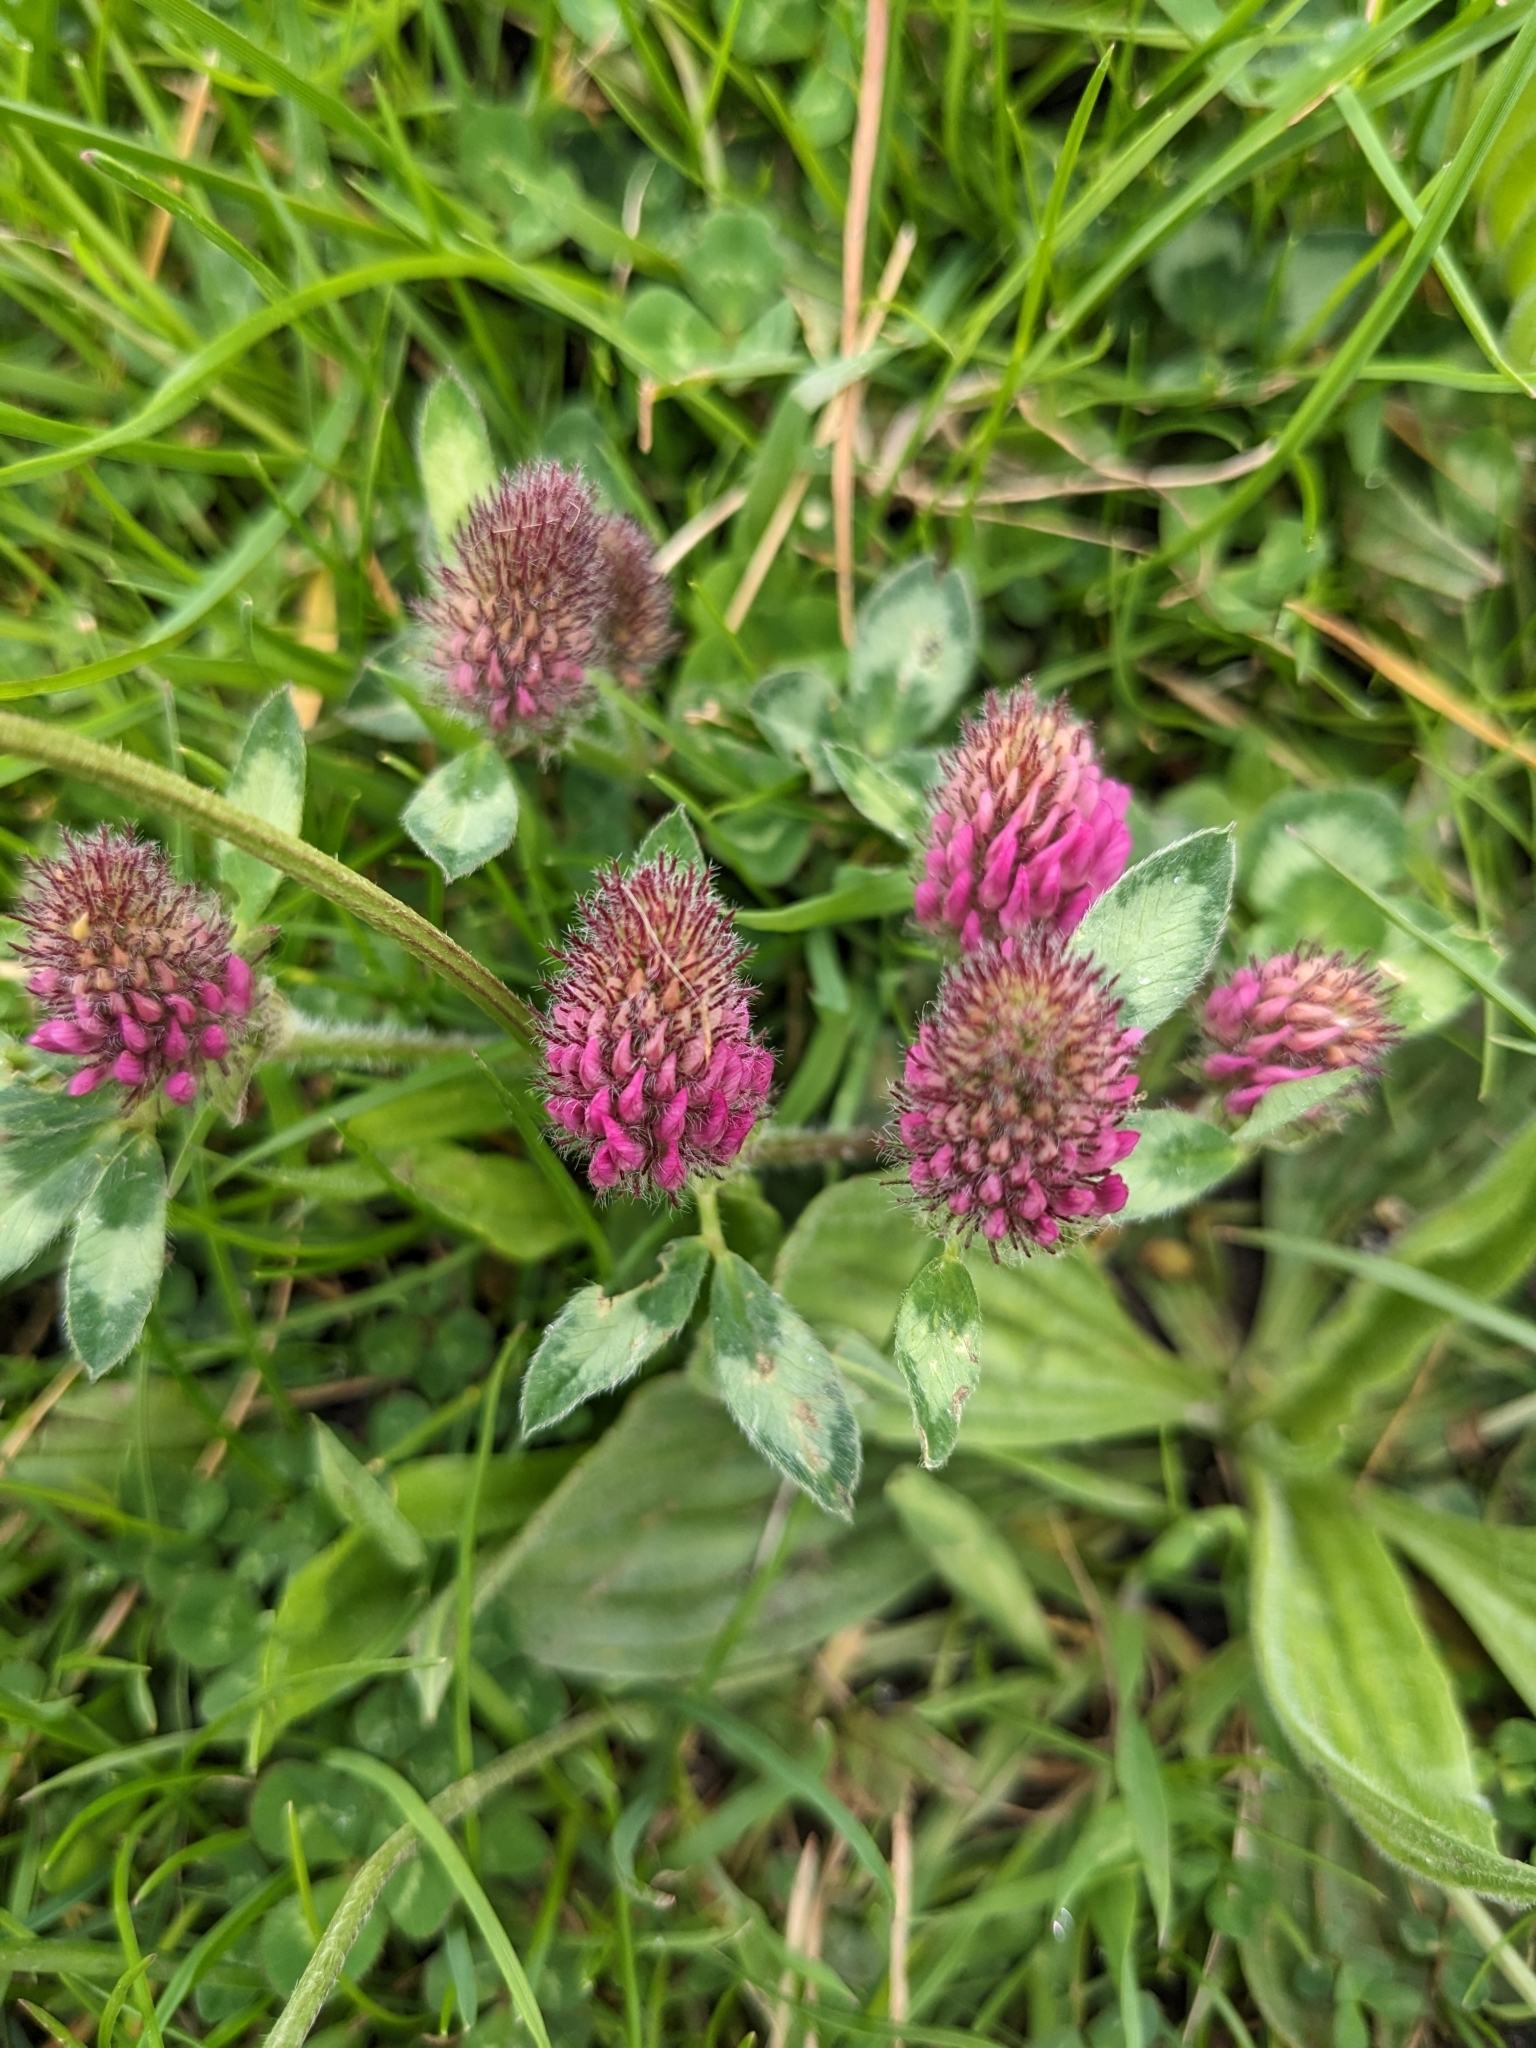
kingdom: Plantae
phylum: Tracheophyta
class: Magnoliopsida
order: Fabales
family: Fabaceae
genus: Trifolium
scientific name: Trifolium pratense
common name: Red clover
